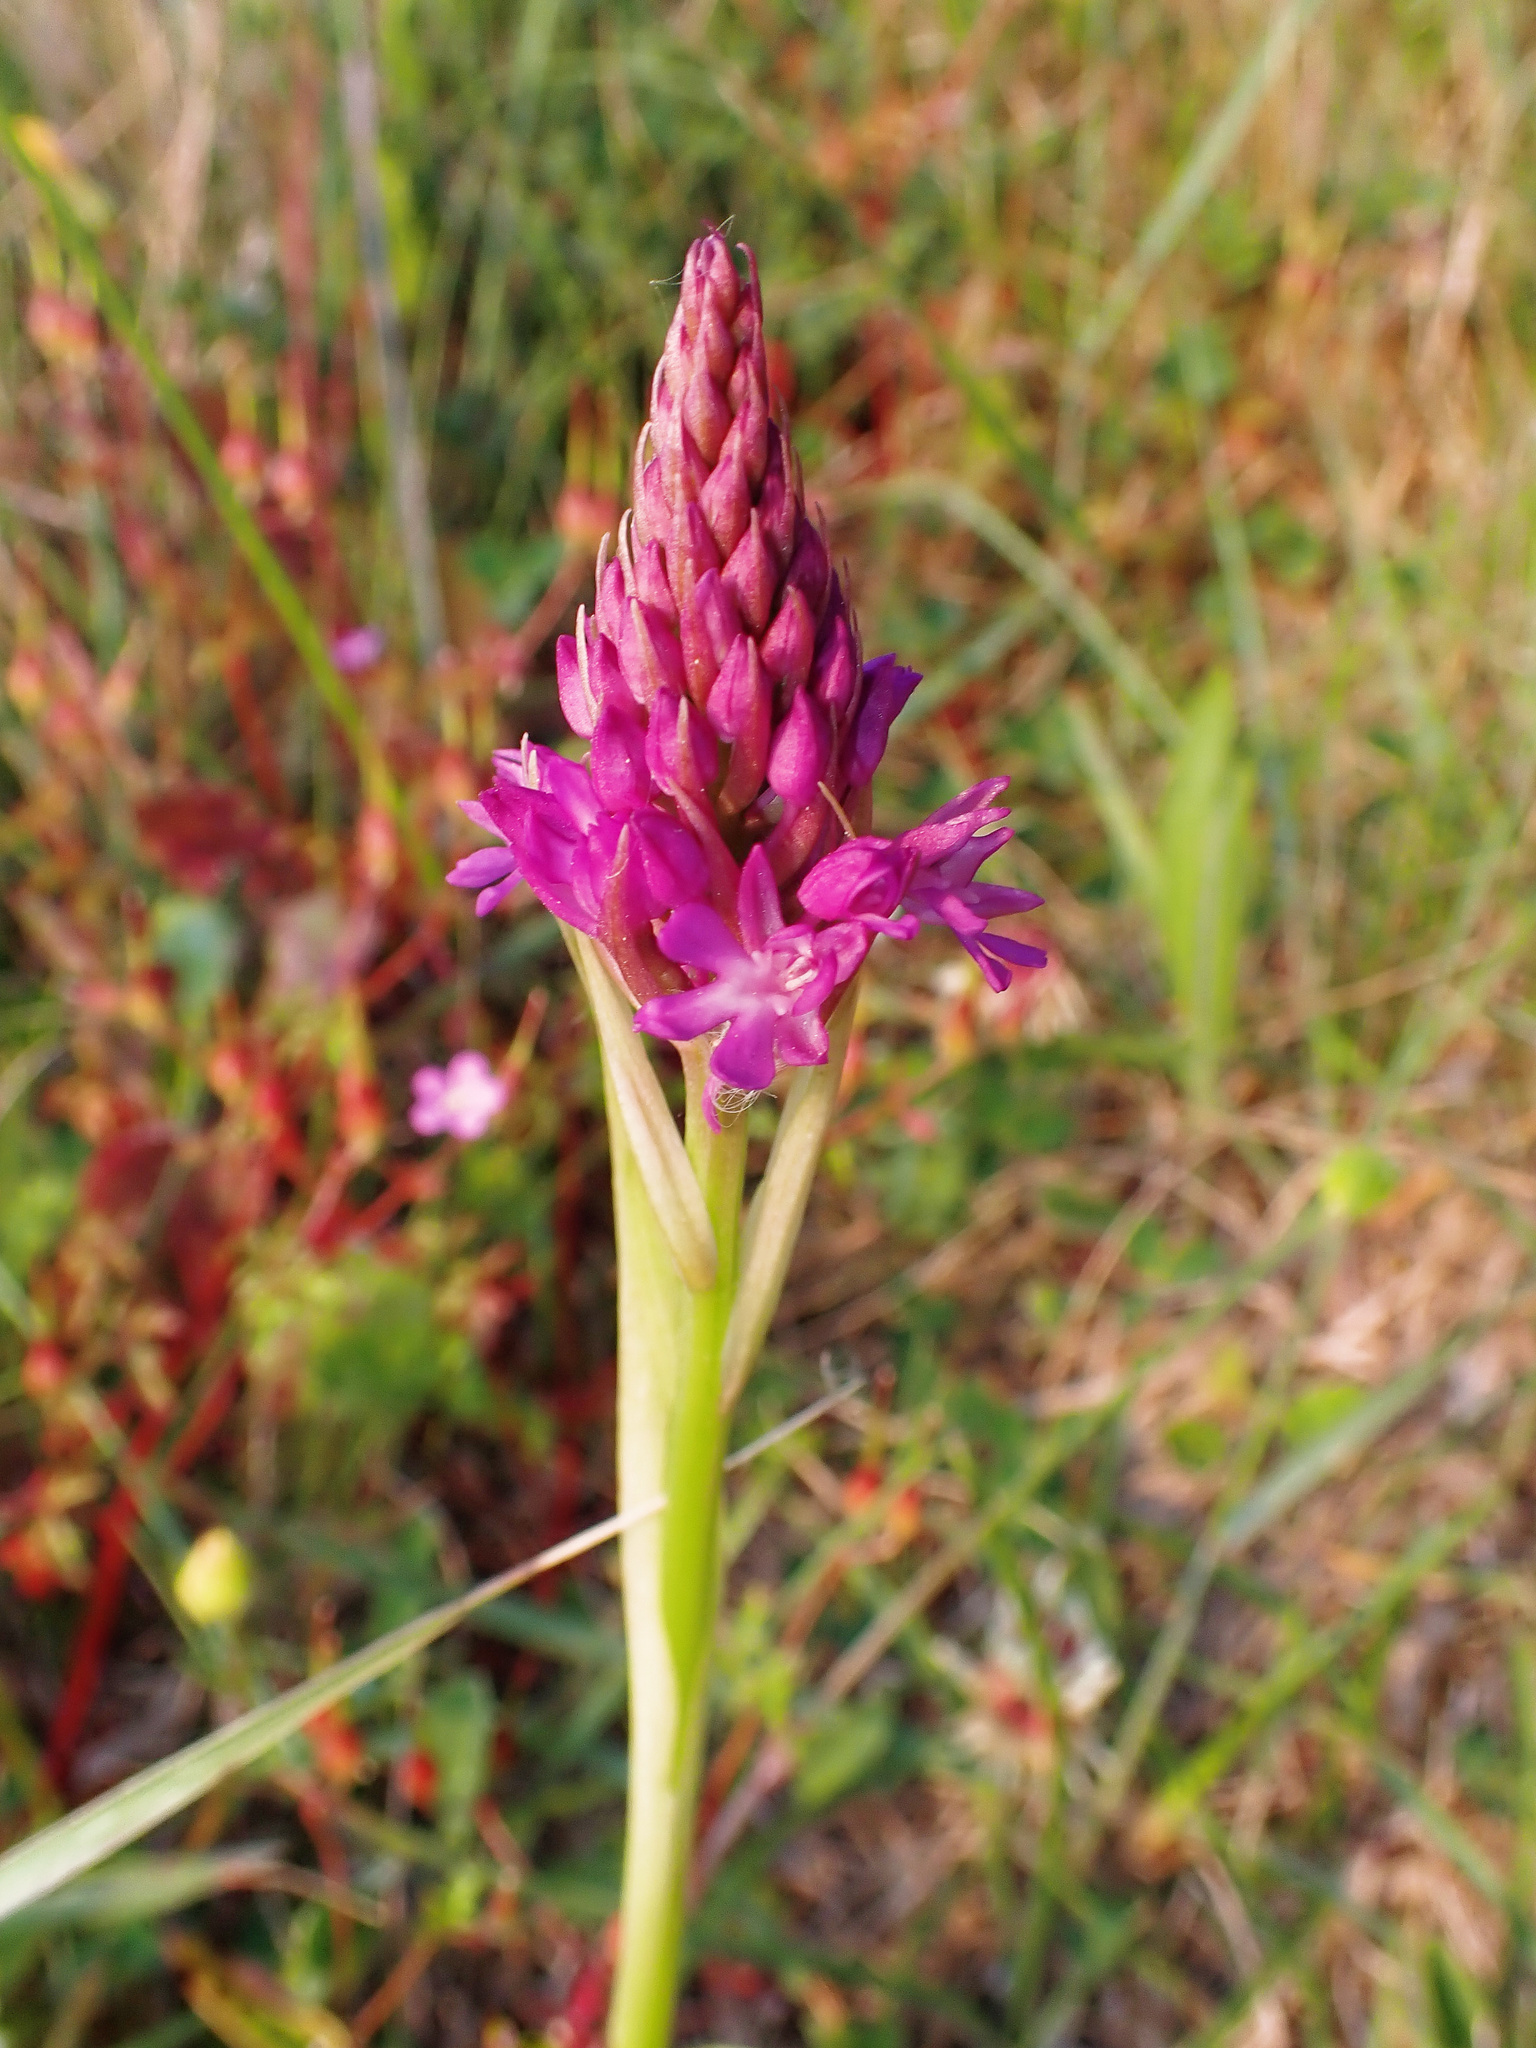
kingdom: Plantae
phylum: Tracheophyta
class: Liliopsida
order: Asparagales
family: Orchidaceae
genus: Anacamptis
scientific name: Anacamptis pyramidalis
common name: Pyramidal orchid
